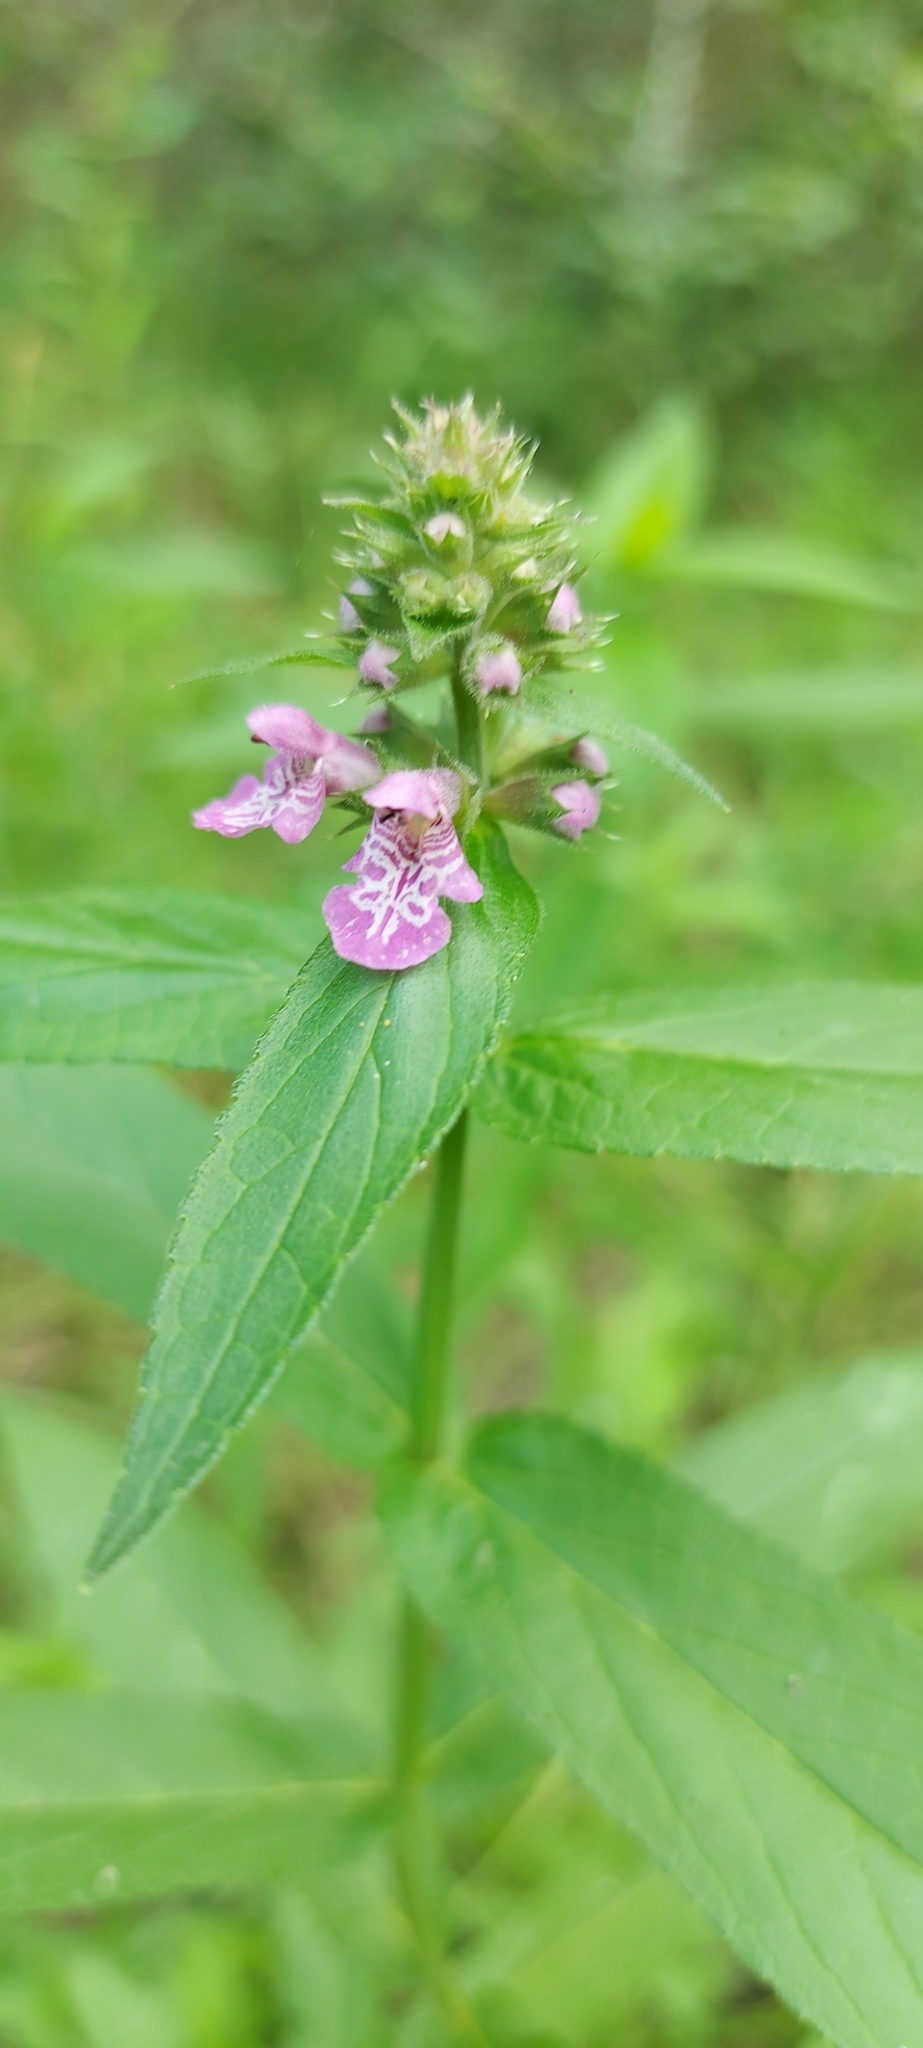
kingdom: Plantae
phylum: Tracheophyta
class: Magnoliopsida
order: Lamiales
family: Lamiaceae
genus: Stachys
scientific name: Stachys palustris
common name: Marsh woundwort
